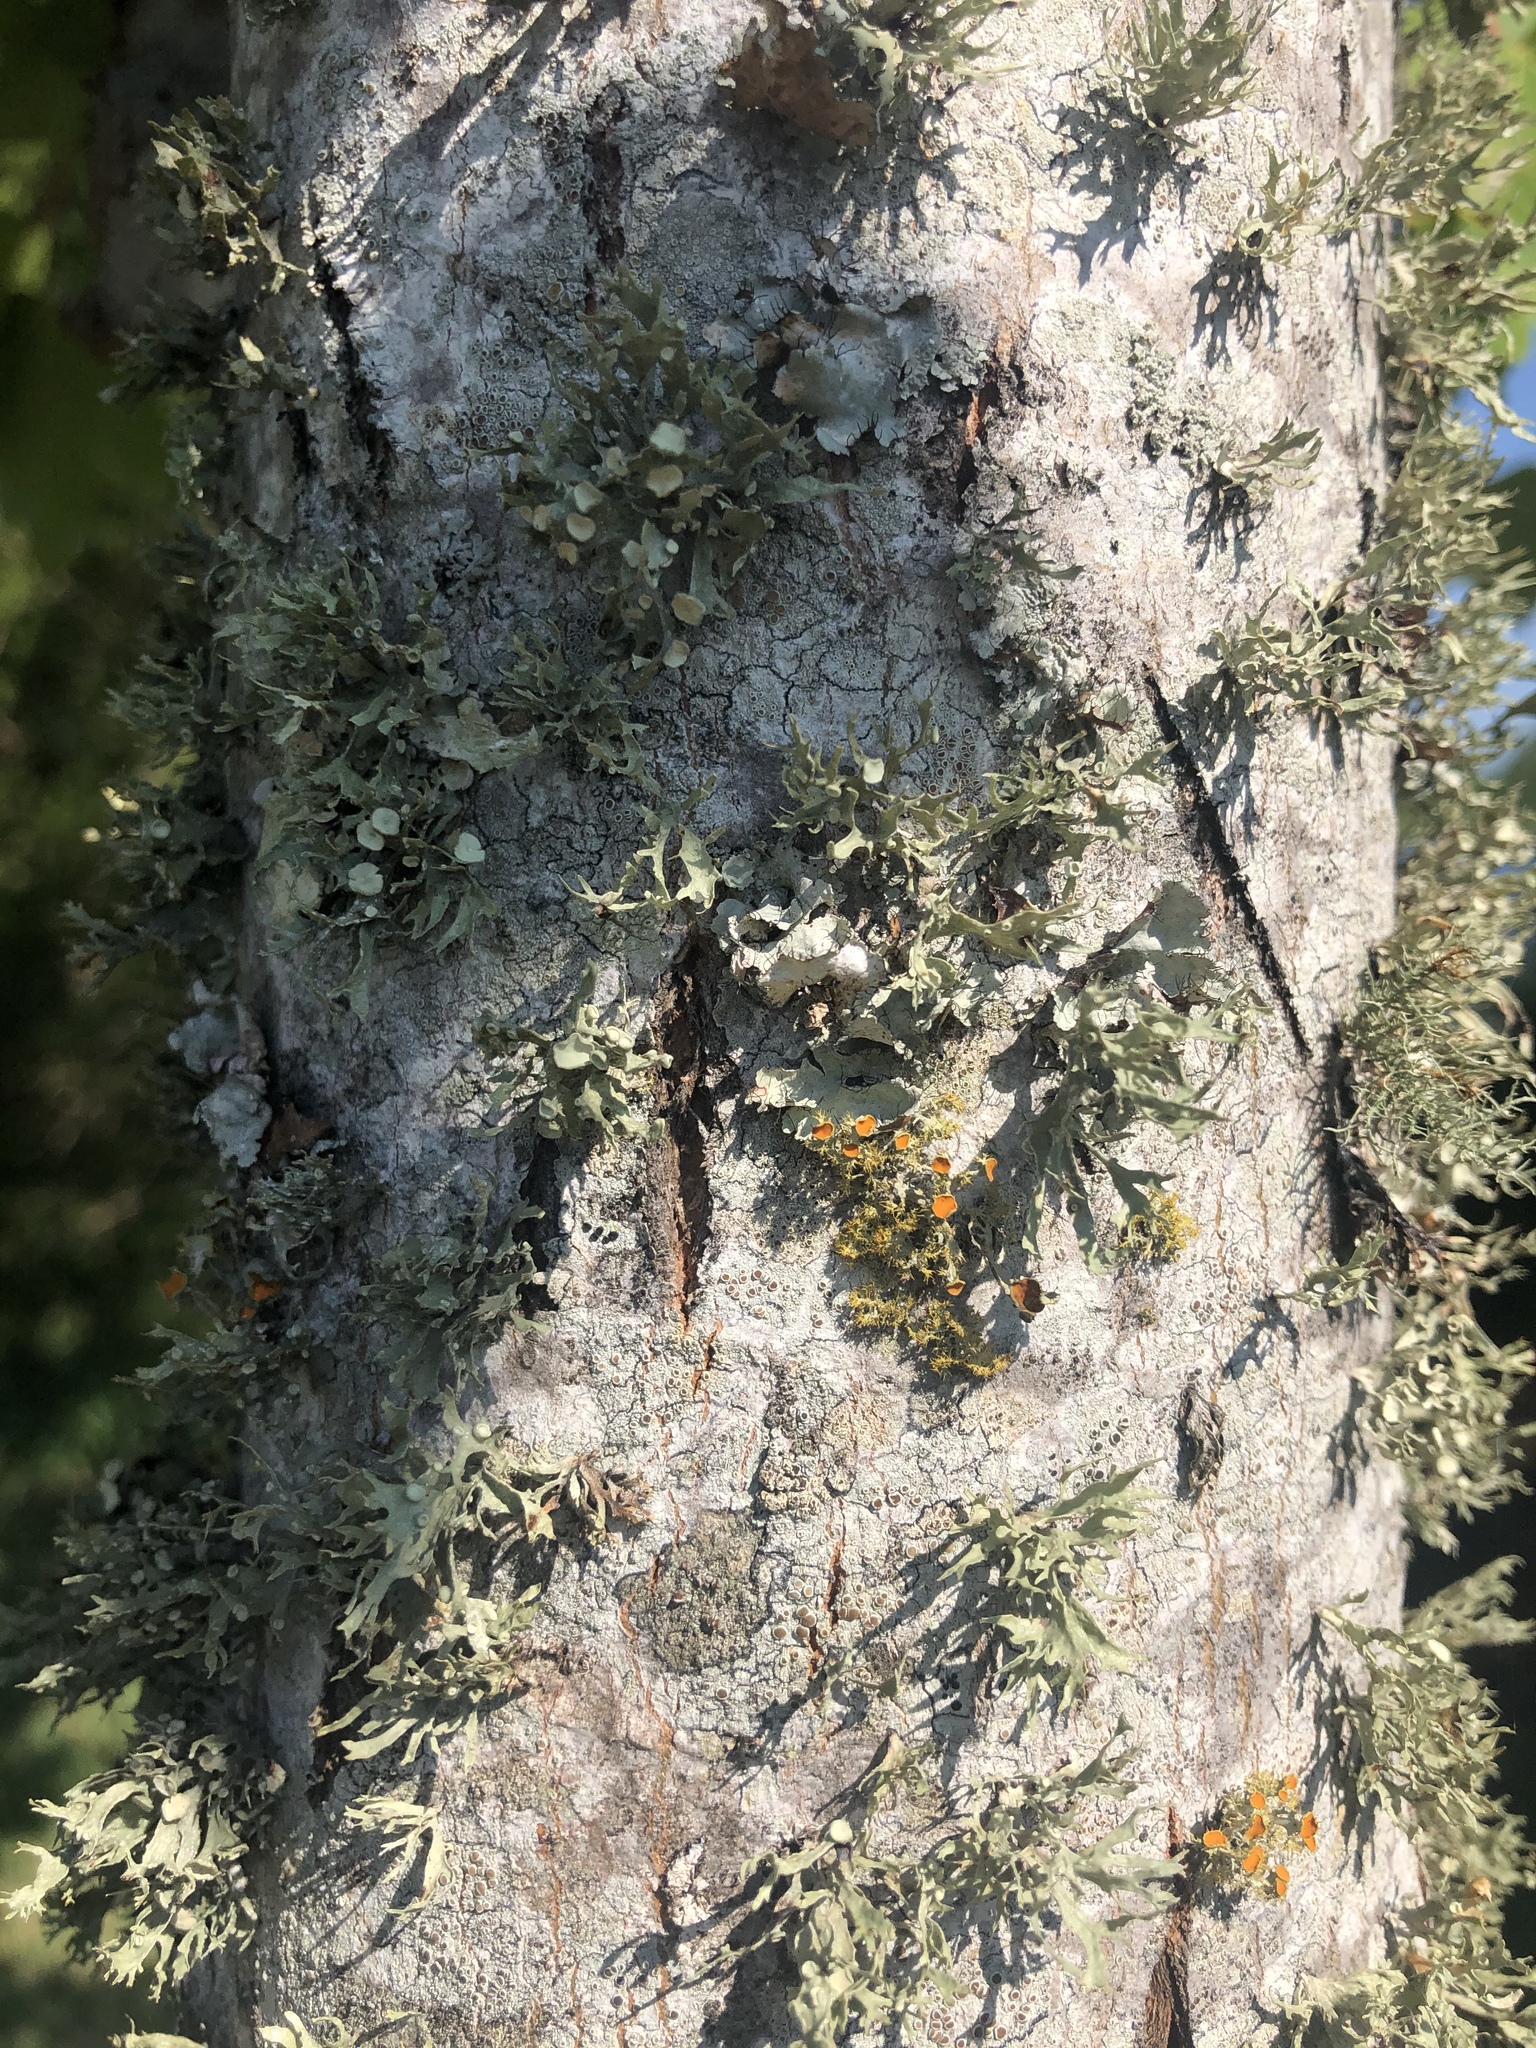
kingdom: Fungi
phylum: Ascomycota
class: Lecanoromycetes
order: Teloschistales
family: Teloschistaceae
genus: Niorma
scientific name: Niorma chrysophthalma
